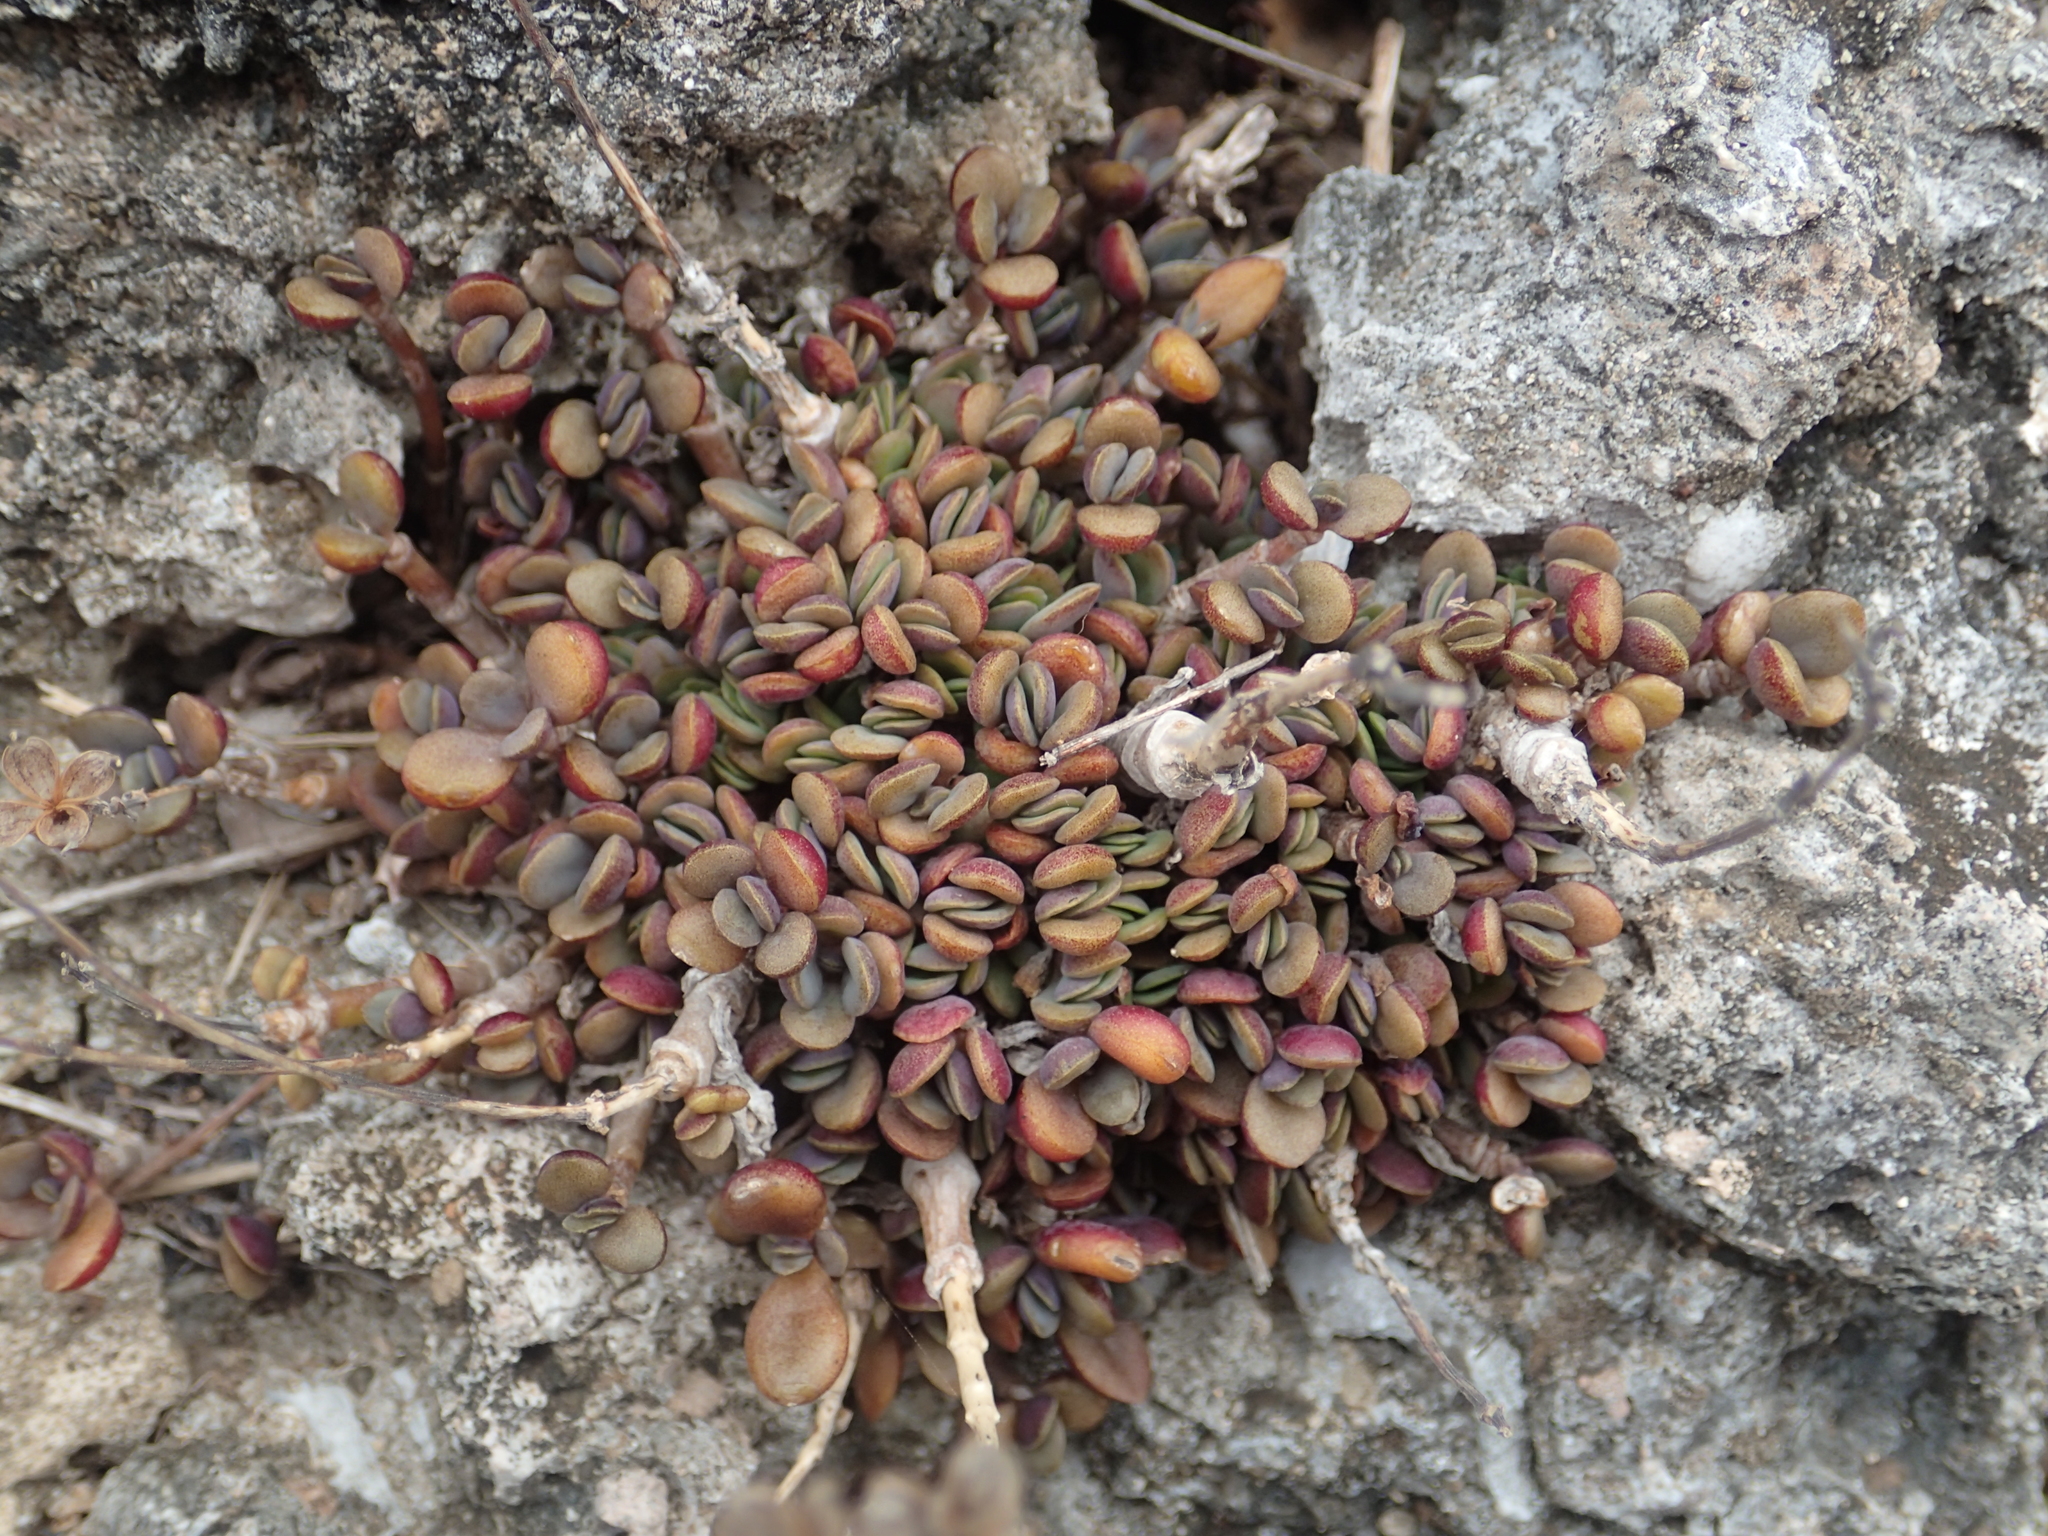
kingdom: Plantae
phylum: Tracheophyta
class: Magnoliopsida
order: Saxifragales
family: Crassulaceae
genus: Kalanchoe
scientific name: Kalanchoe integra
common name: Neverdie
